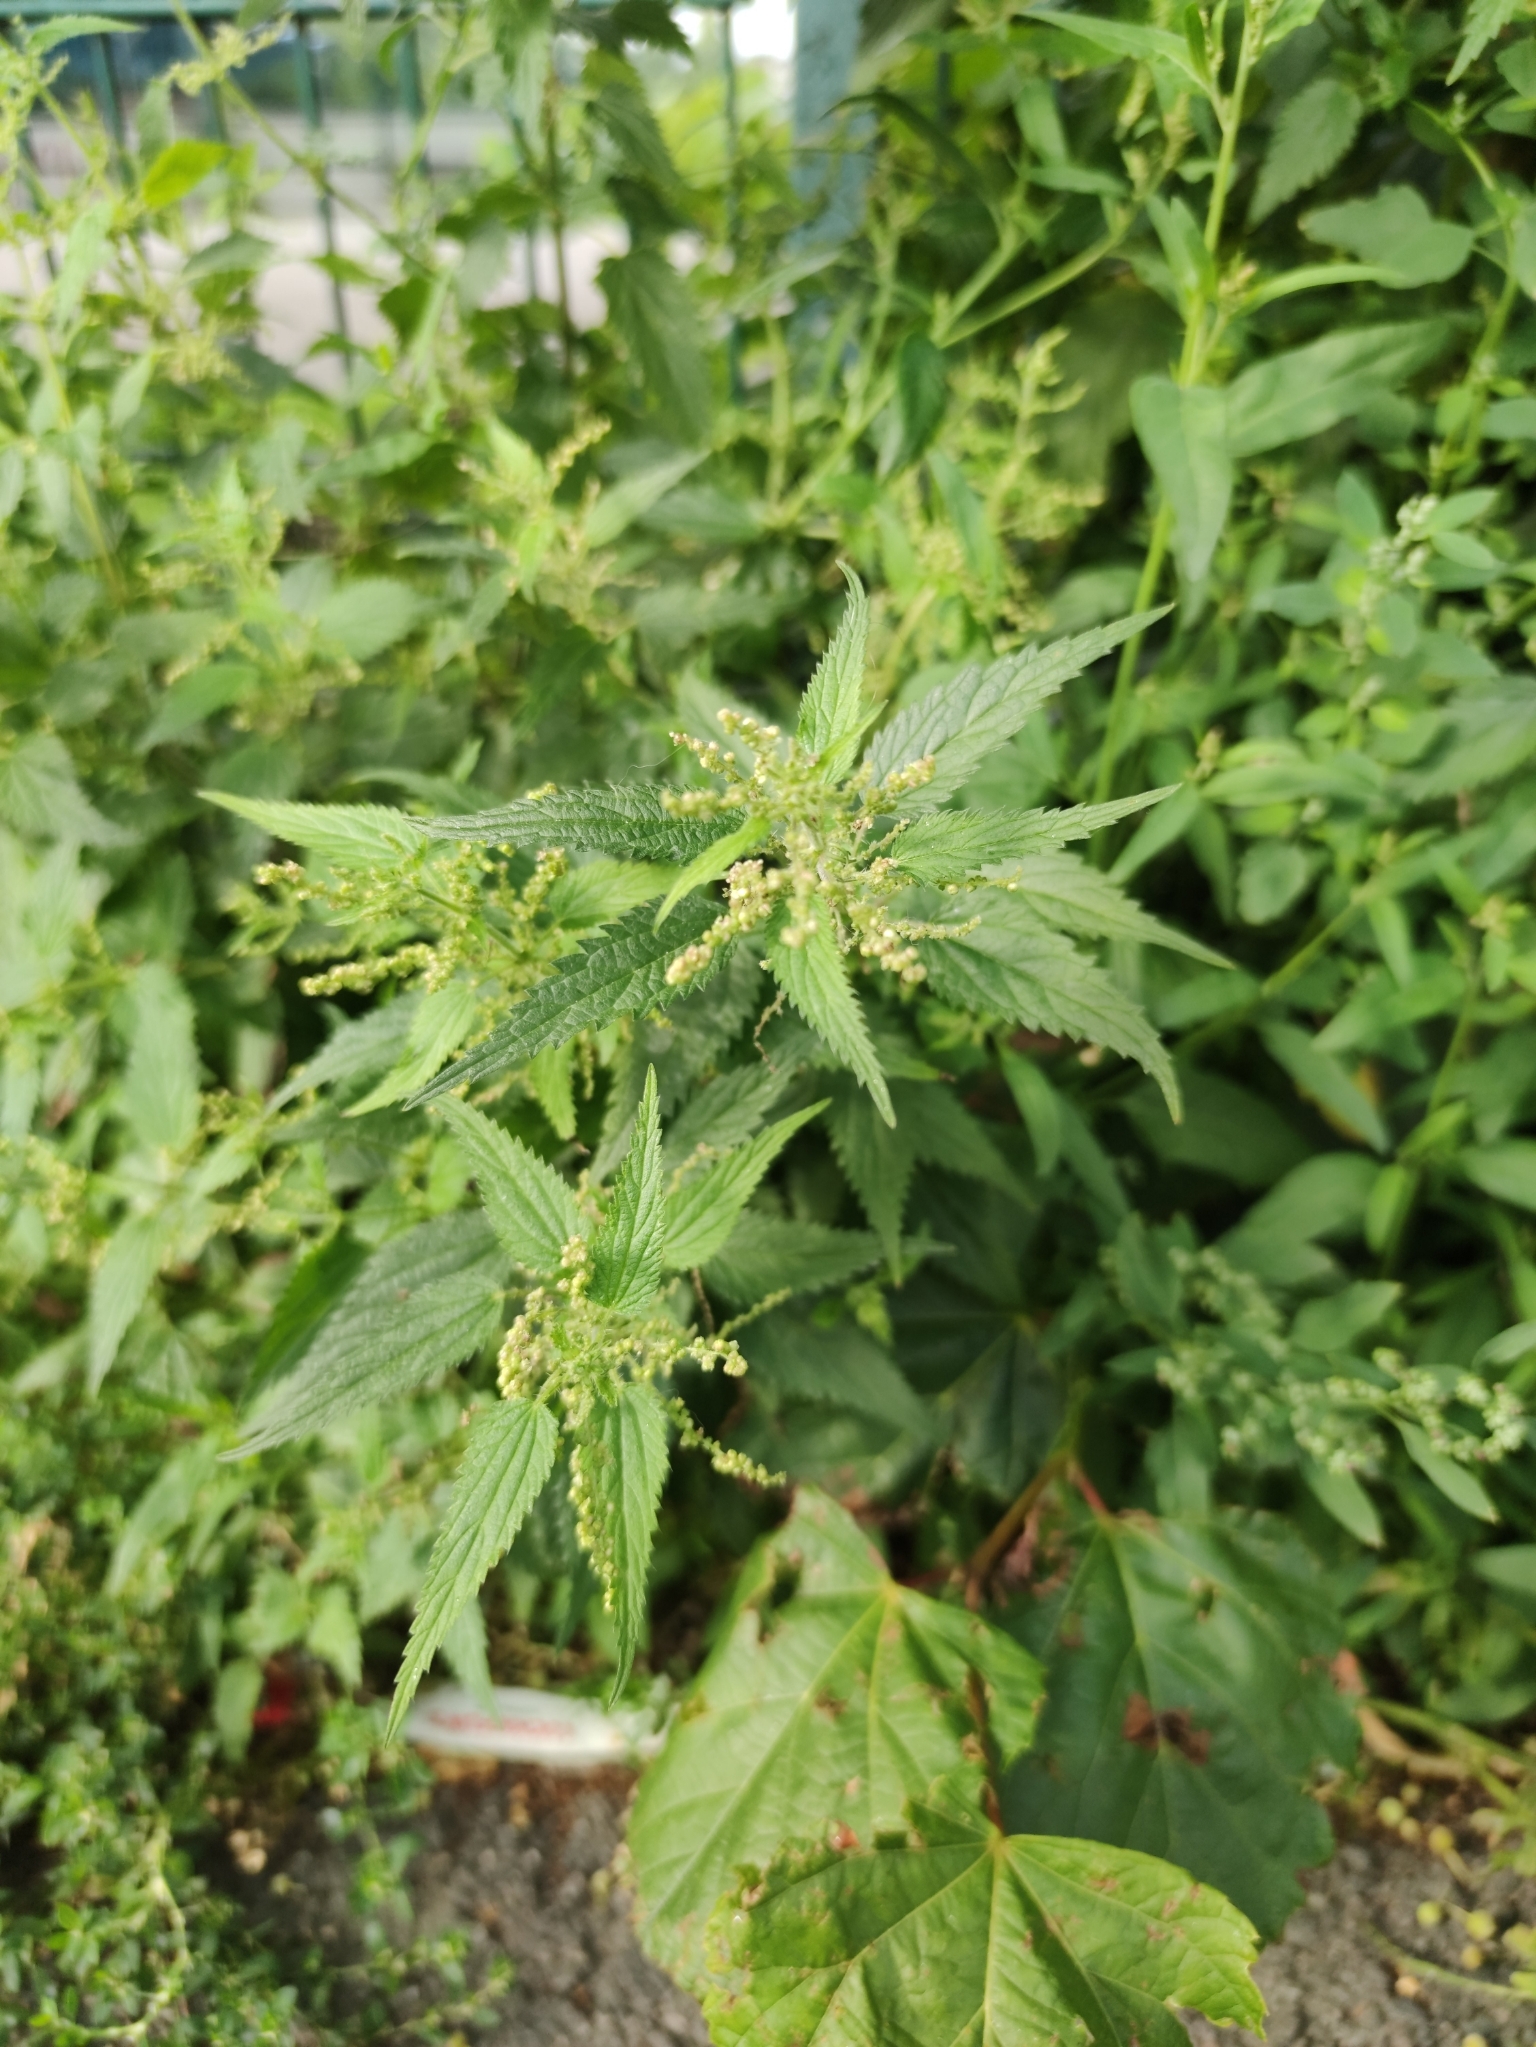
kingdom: Plantae
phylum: Tracheophyta
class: Magnoliopsida
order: Rosales
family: Urticaceae
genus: Urtica
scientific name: Urtica dioica
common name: Common nettle
